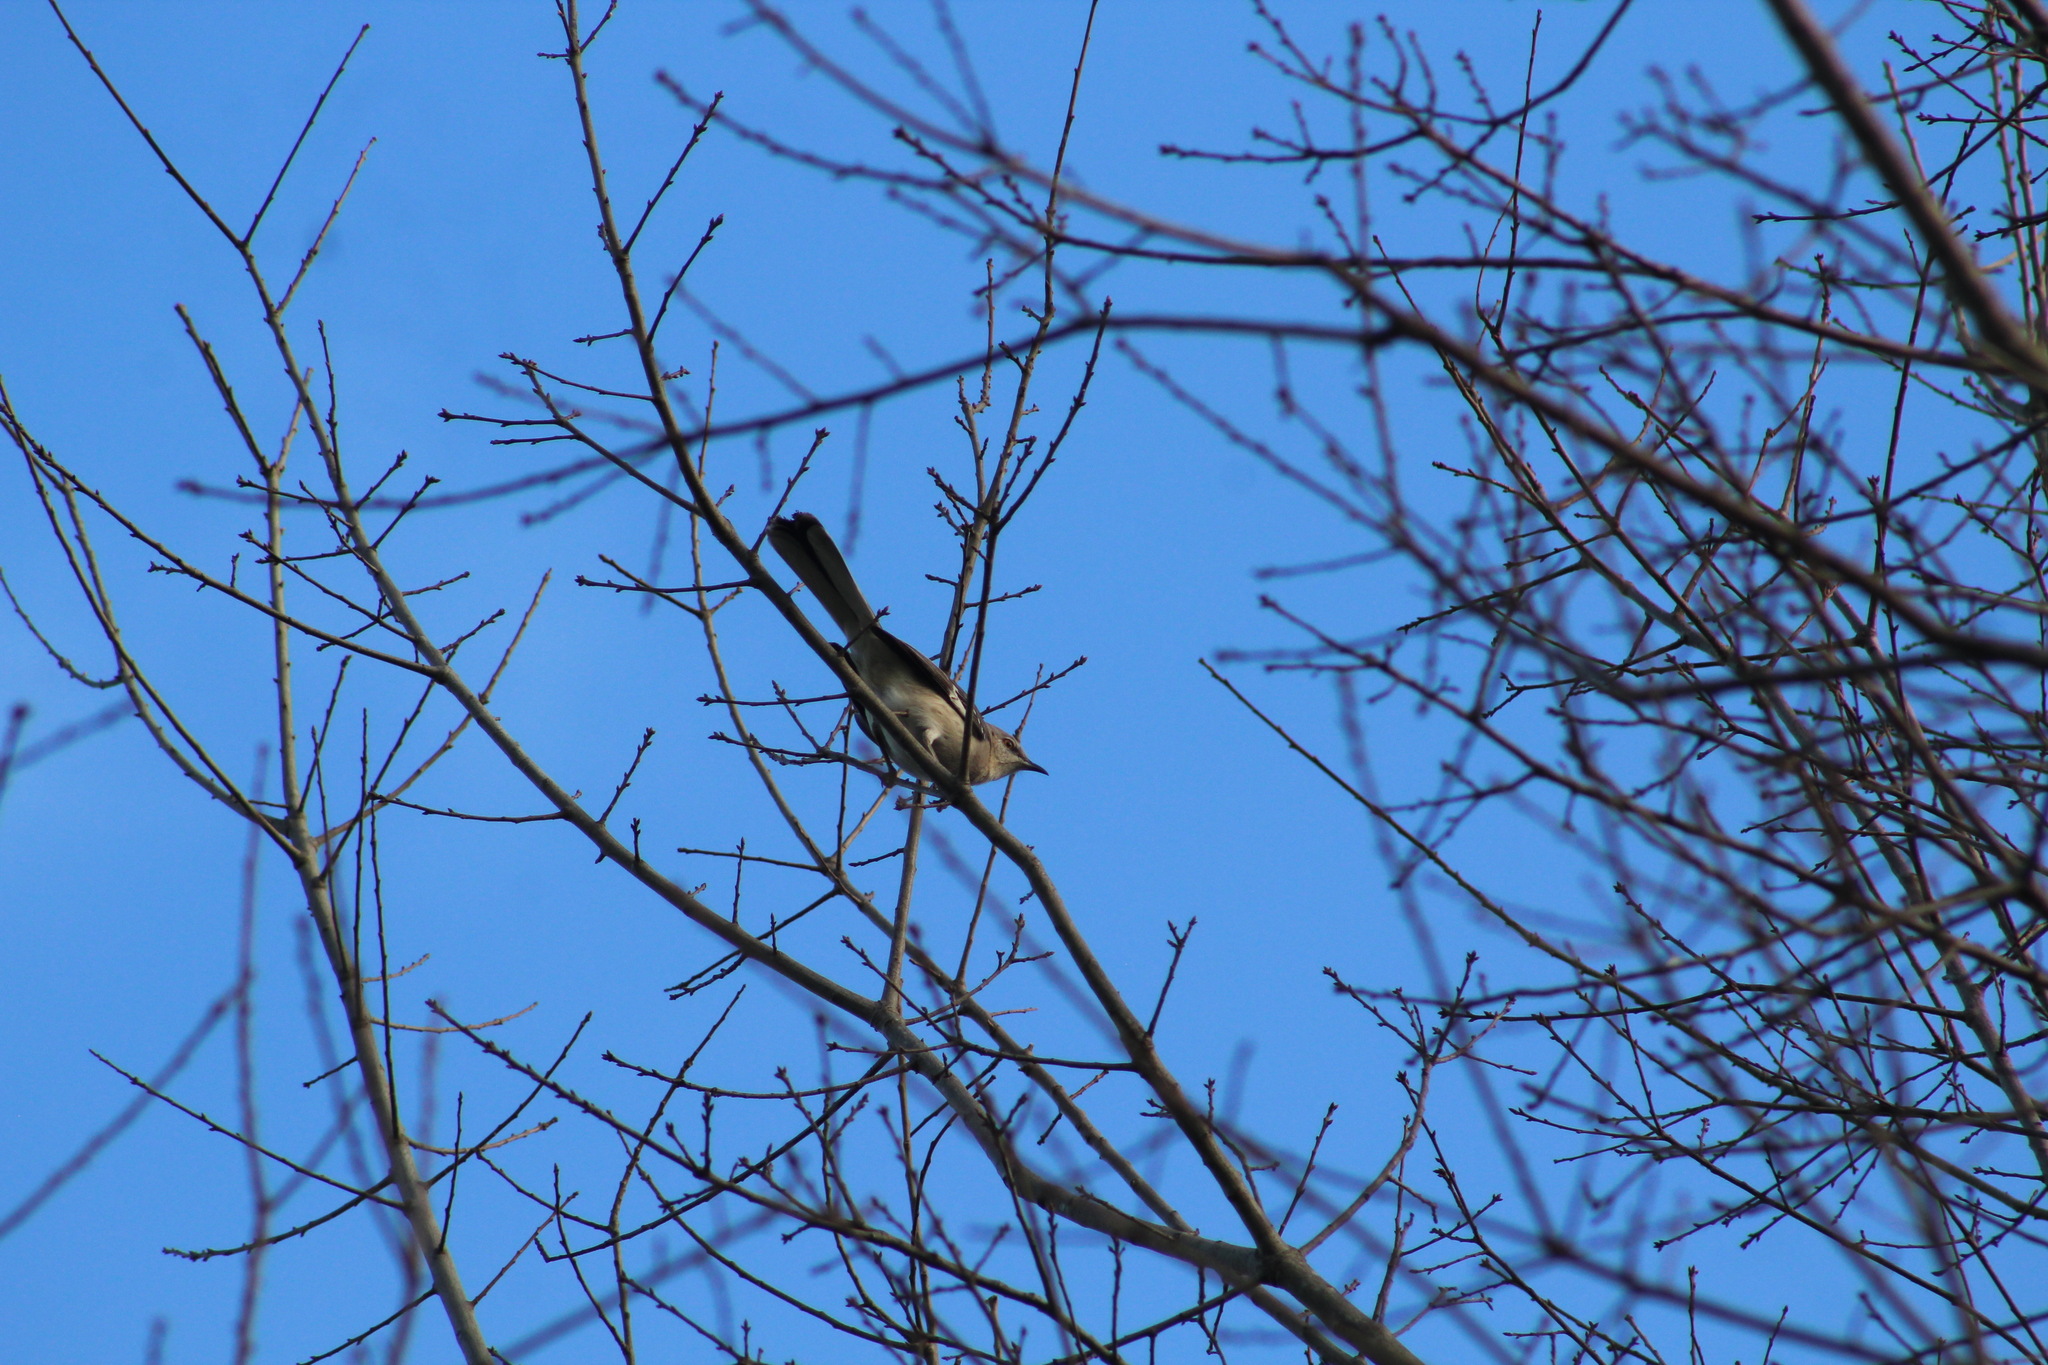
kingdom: Animalia
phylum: Chordata
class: Aves
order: Passeriformes
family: Mimidae
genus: Mimus
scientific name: Mimus polyglottos
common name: Northern mockingbird
